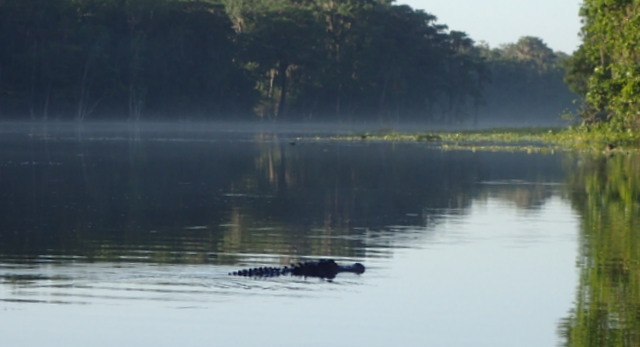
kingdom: Animalia
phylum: Chordata
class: Crocodylia
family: Alligatoridae
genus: Alligator
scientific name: Alligator mississippiensis
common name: American alligator
